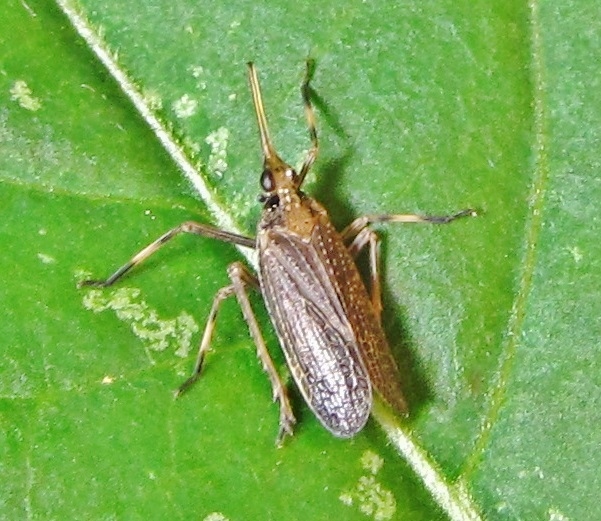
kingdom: Animalia
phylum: Arthropoda
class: Insecta
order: Hemiptera
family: Dictyopharidae
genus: Scolops
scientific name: Scolops sulcipes
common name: Partridge planthopper
